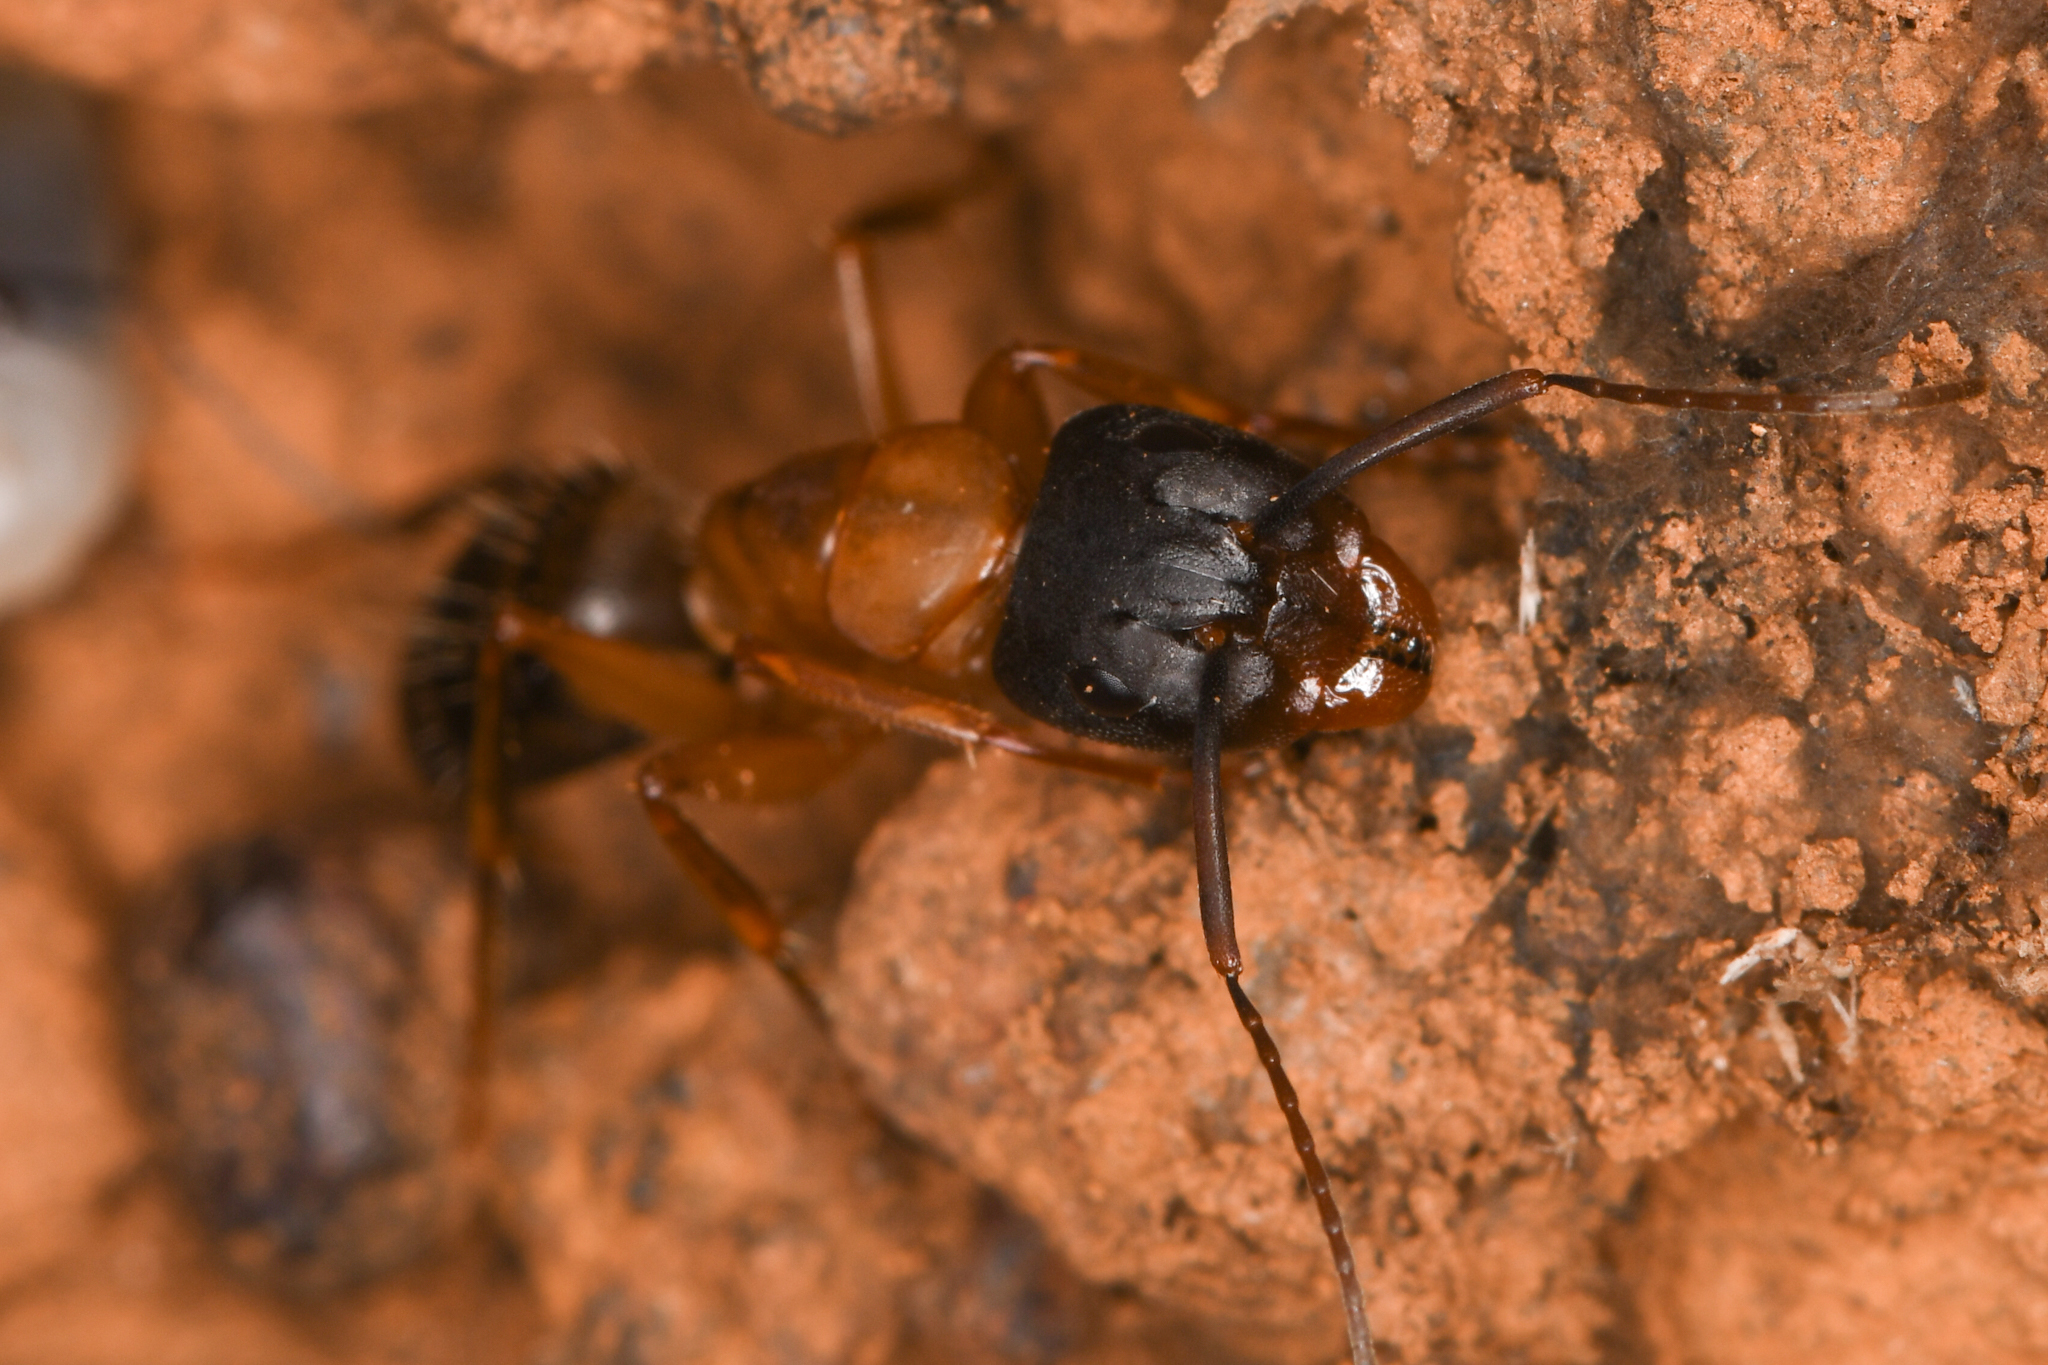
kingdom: Animalia
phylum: Arthropoda
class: Insecta
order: Hymenoptera
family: Formicidae
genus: Camponotus
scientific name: Camponotus vicinus
